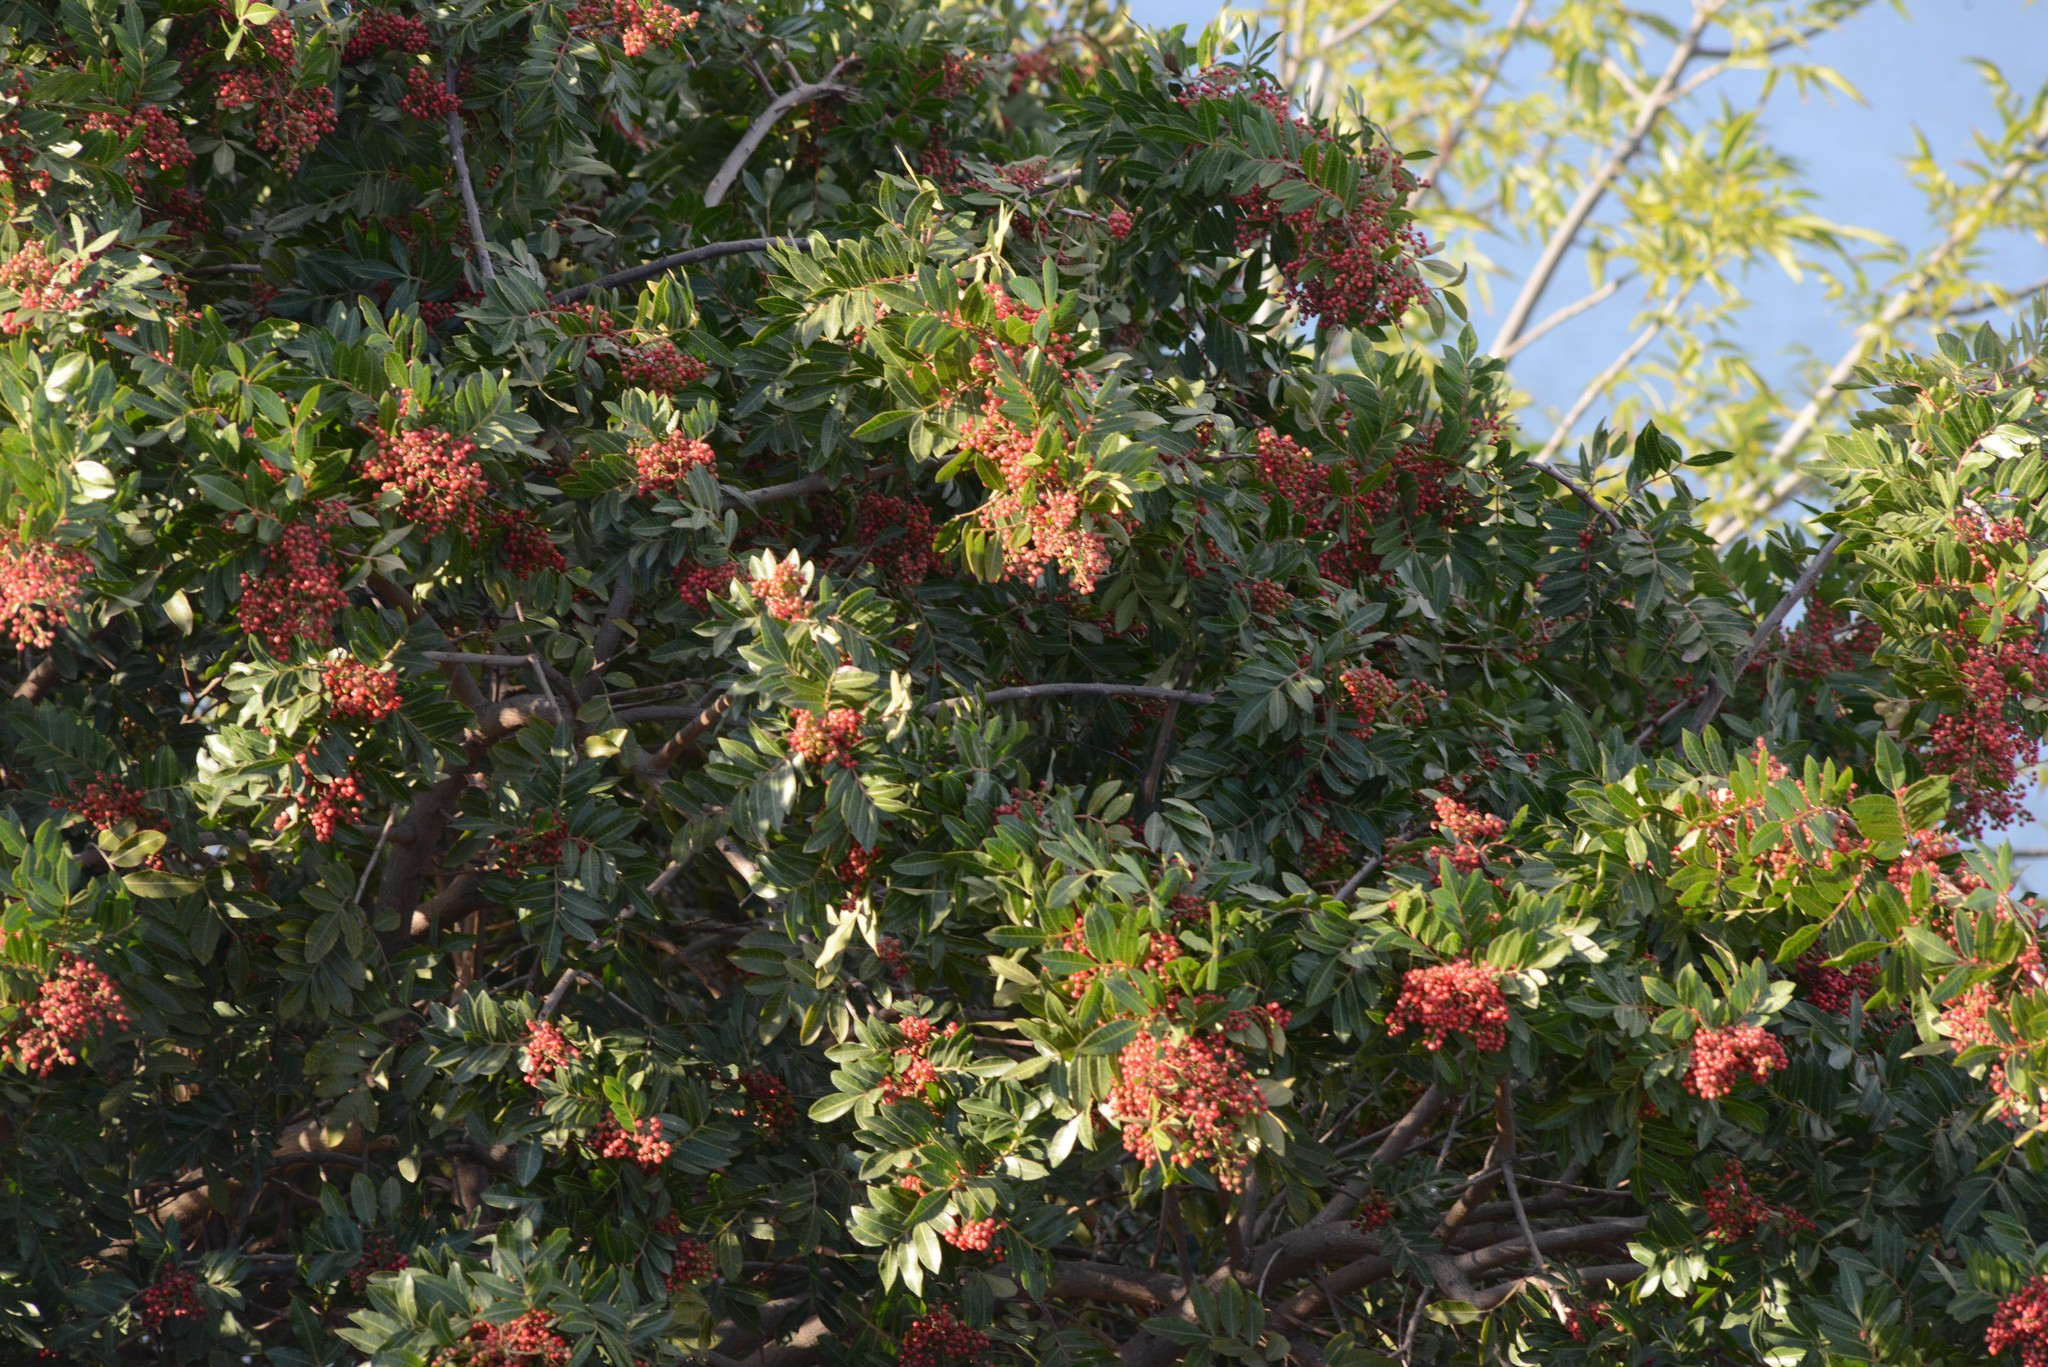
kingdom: Plantae
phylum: Tracheophyta
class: Magnoliopsida
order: Sapindales
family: Anacardiaceae
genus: Schinus
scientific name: Schinus terebinthifolia
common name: Brazilian peppertree
